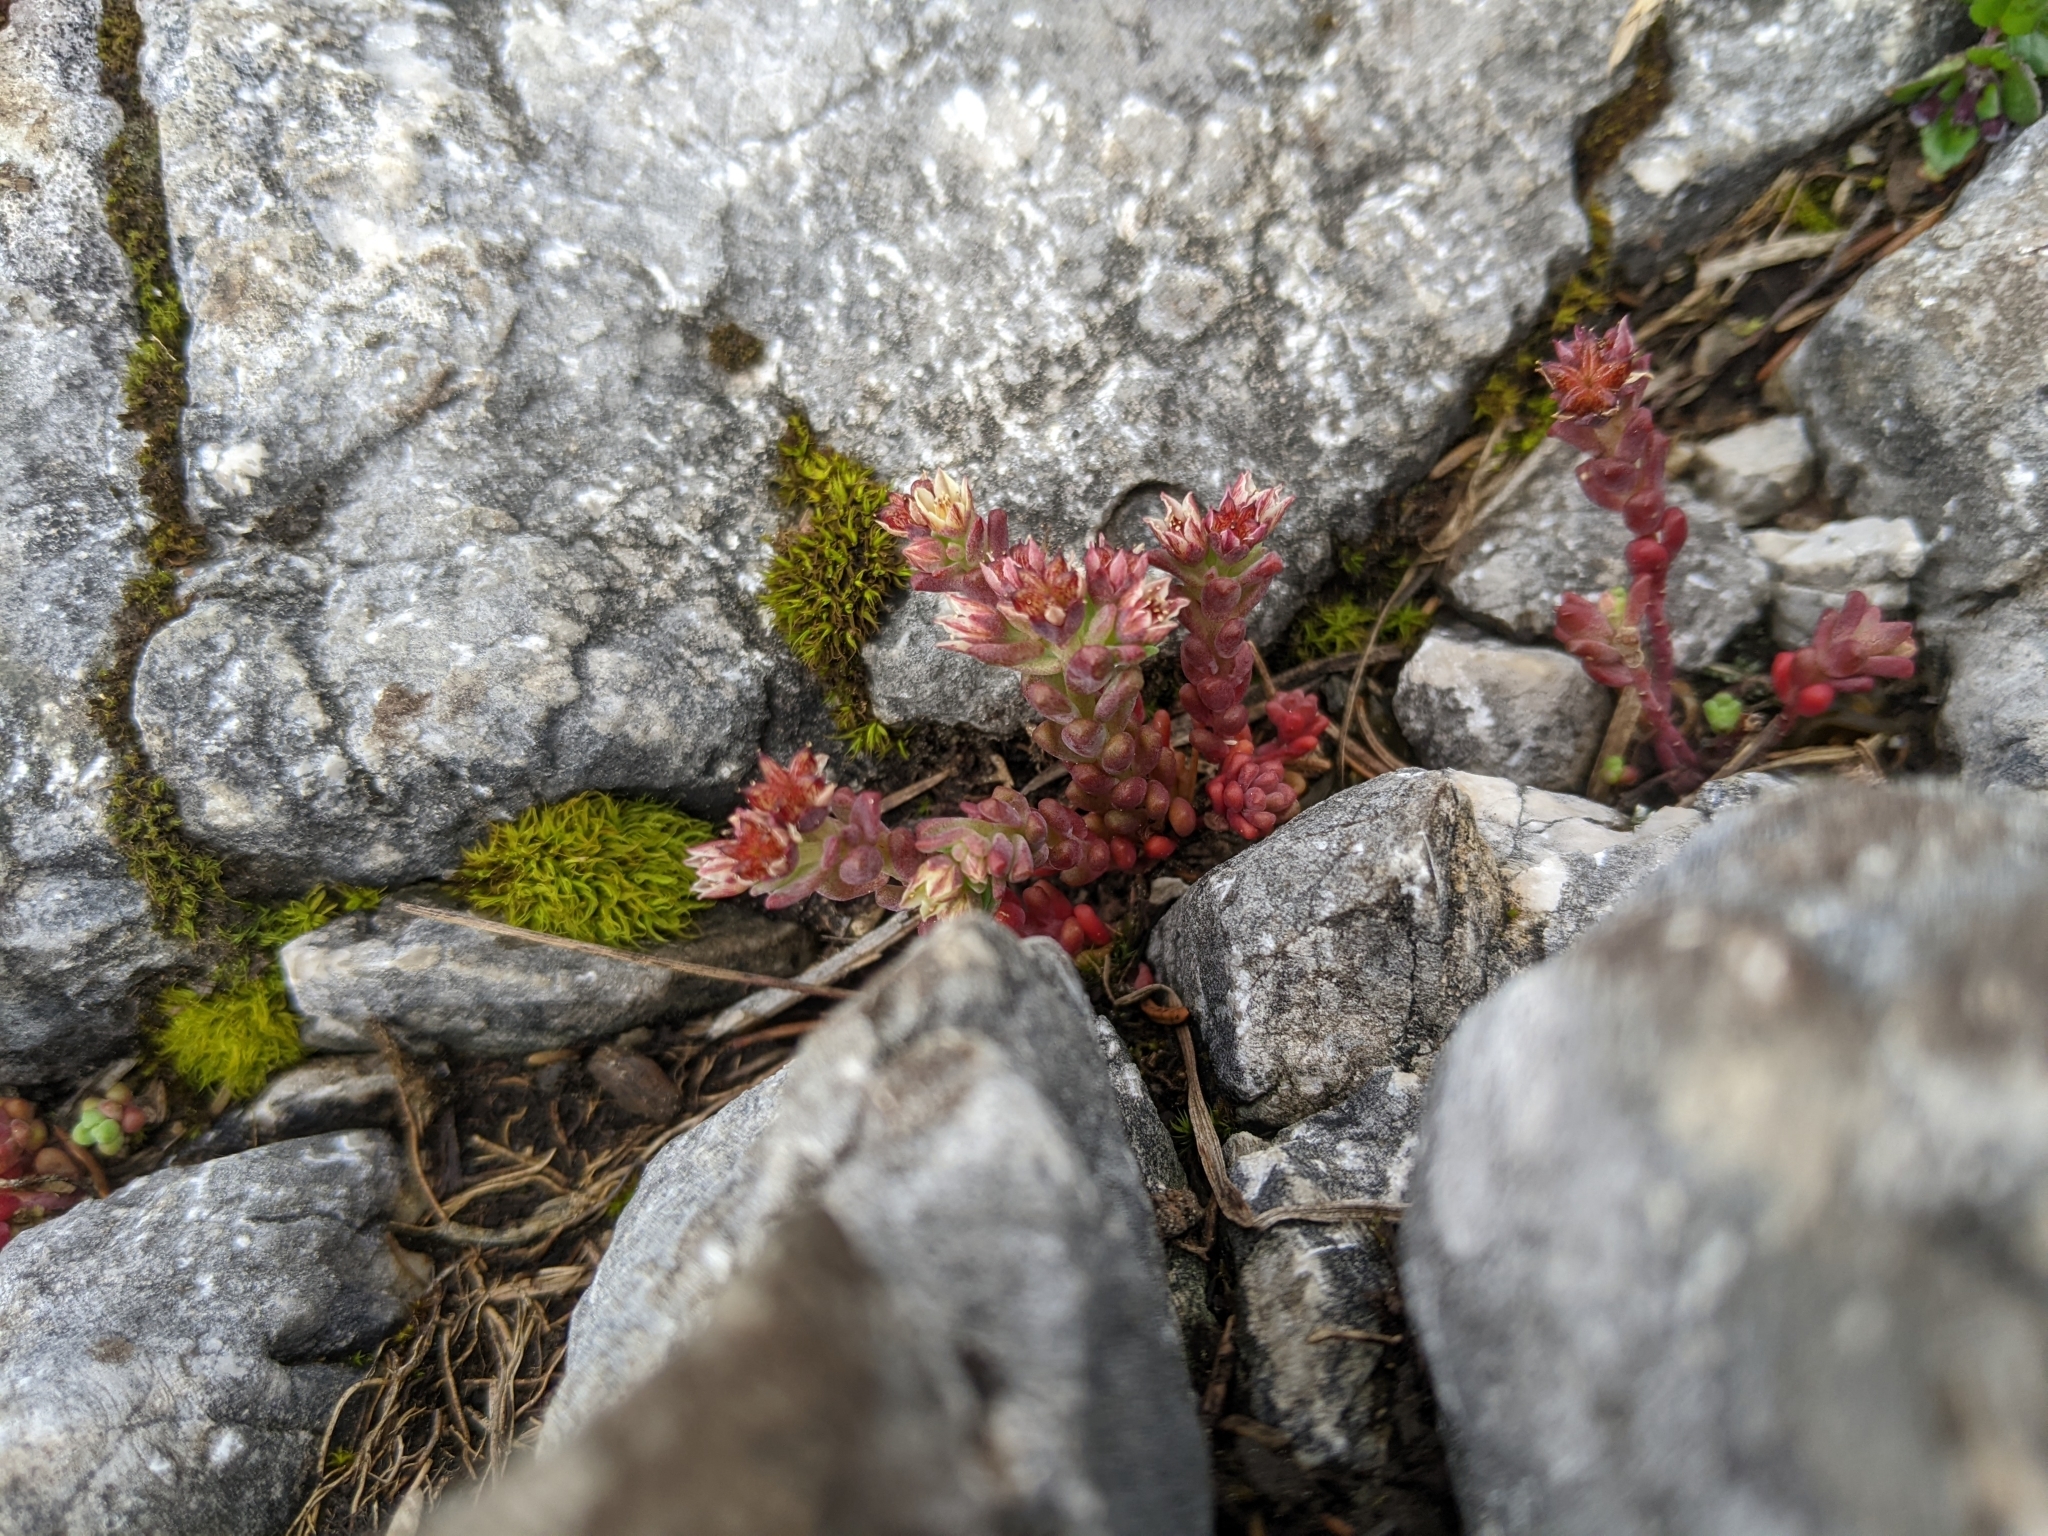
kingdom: Plantae
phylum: Tracheophyta
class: Magnoliopsida
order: Saxifragales
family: Crassulaceae
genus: Sedum
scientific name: Sedum atratum
